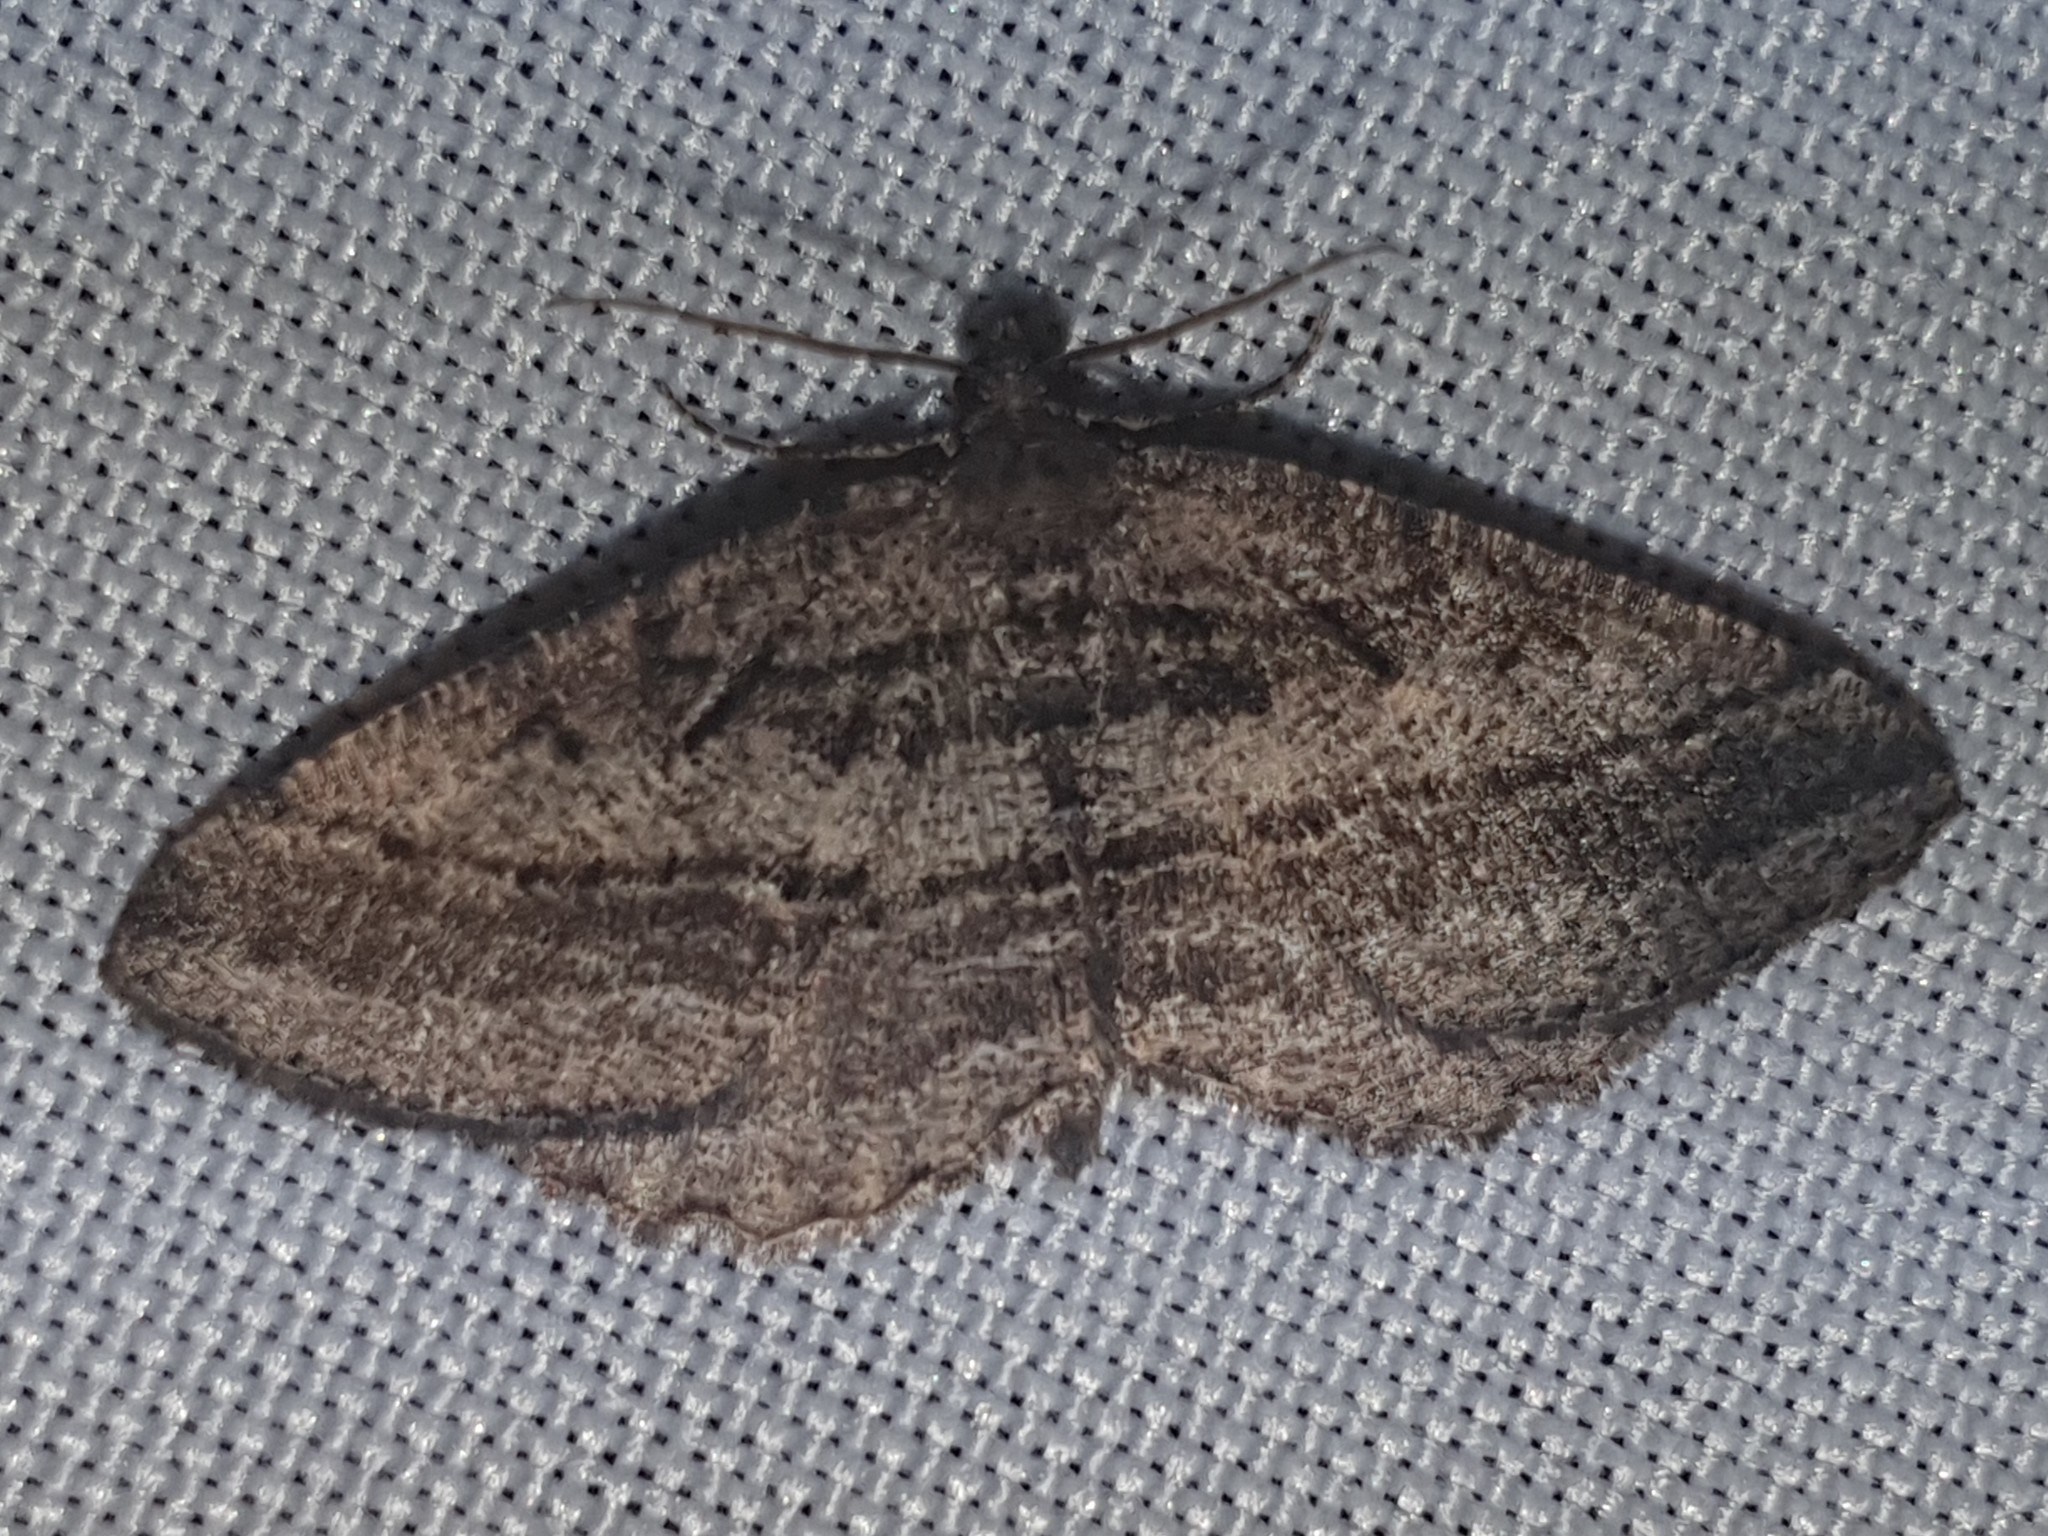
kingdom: Animalia
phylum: Arthropoda
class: Insecta
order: Lepidoptera
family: Geometridae
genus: Rhoptria
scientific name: Rhoptria asperaria
